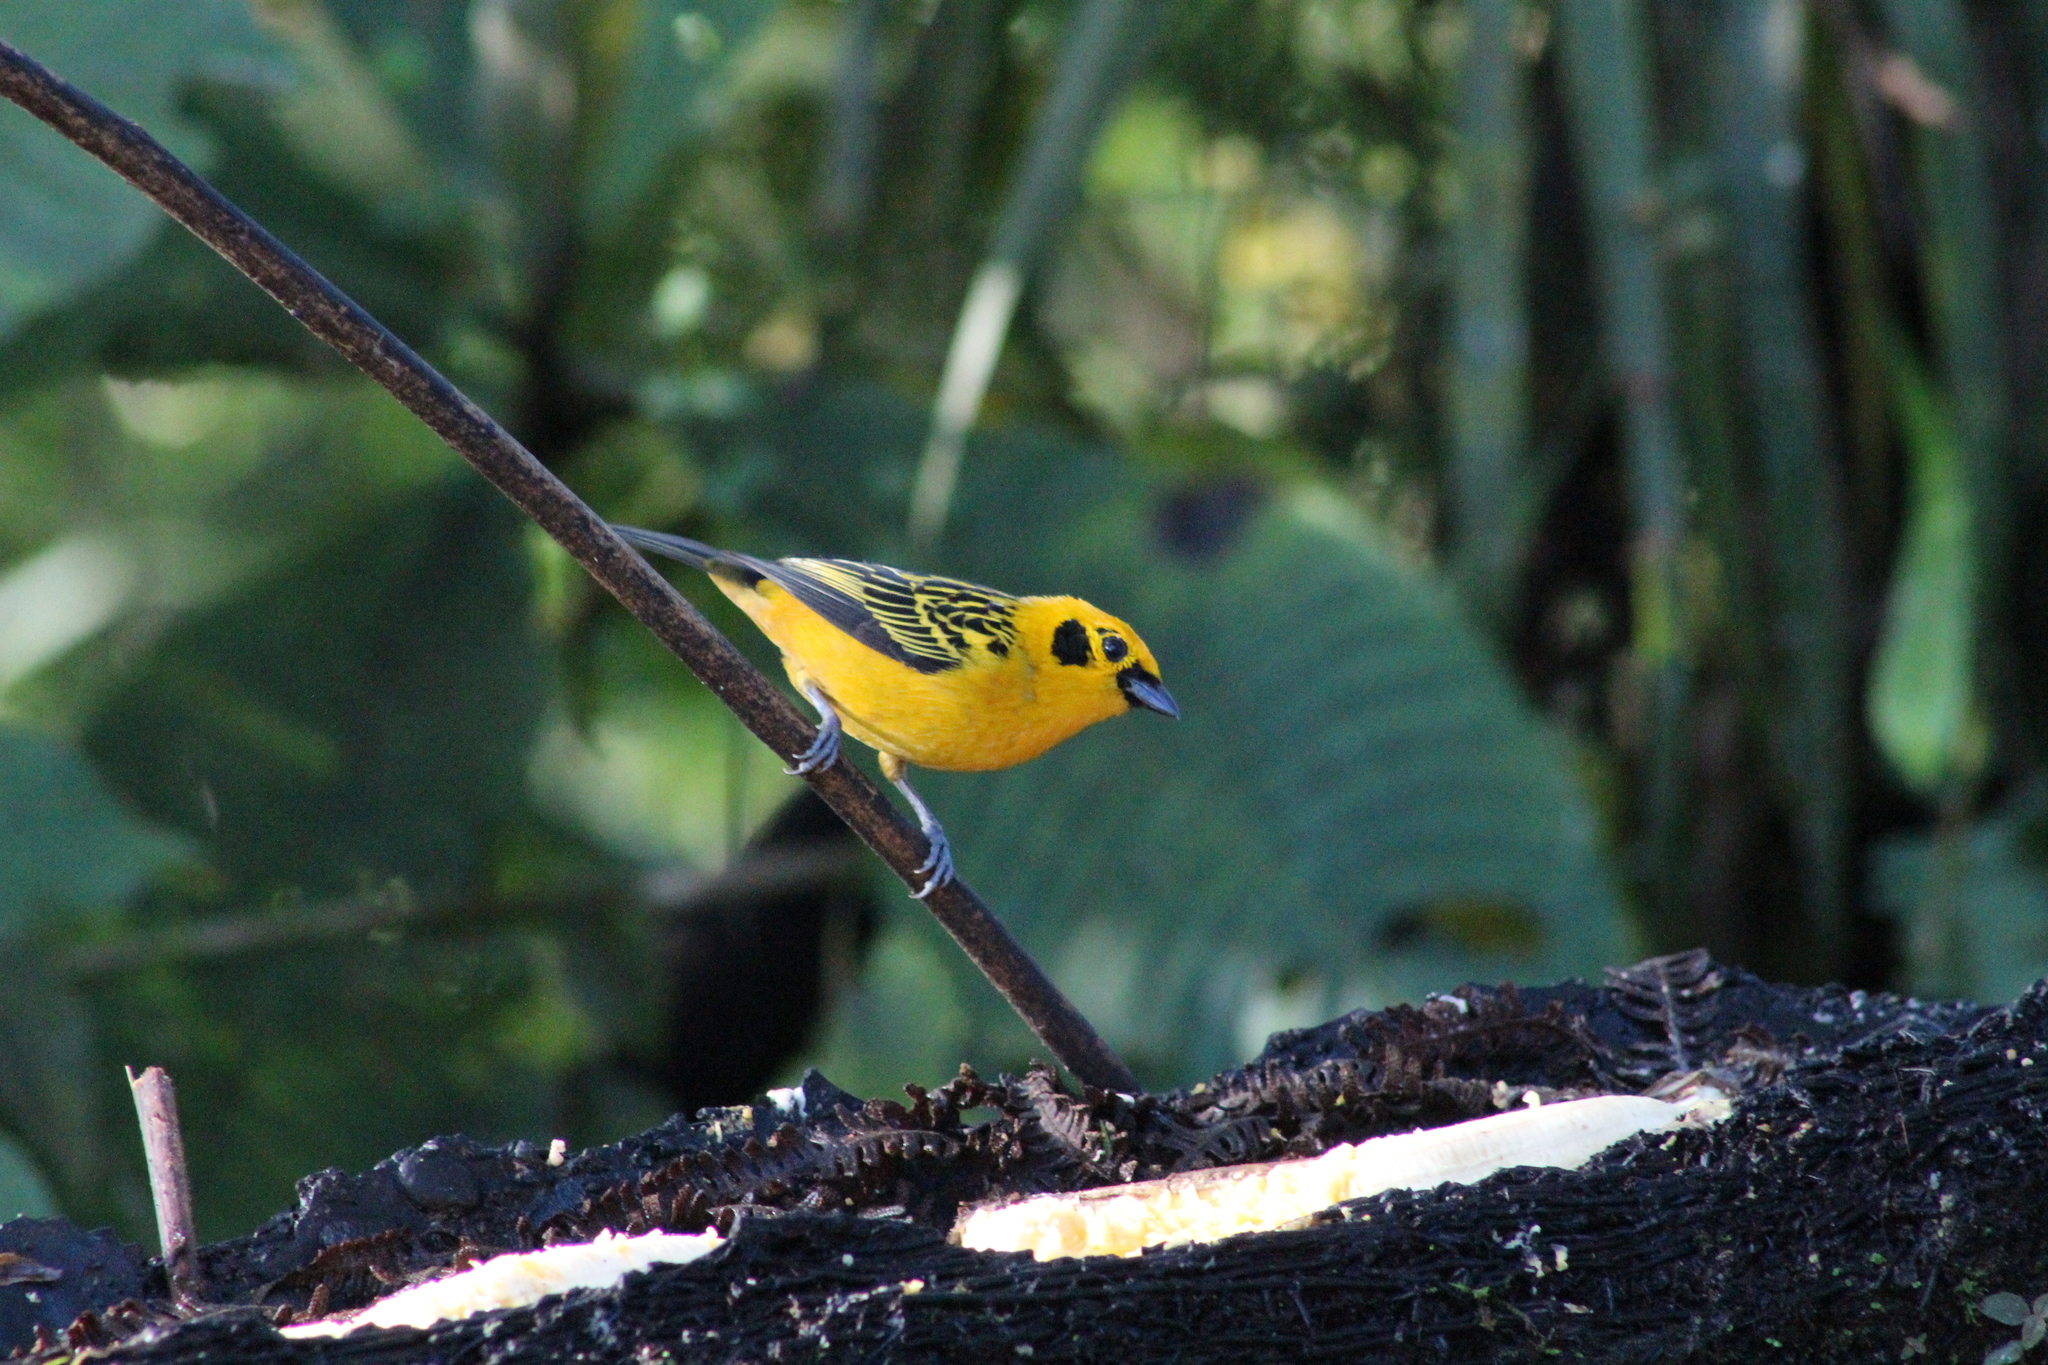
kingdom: Animalia
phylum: Chordata
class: Aves
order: Passeriformes
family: Thraupidae
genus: Tangara
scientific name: Tangara arthus
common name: Golden tanager
